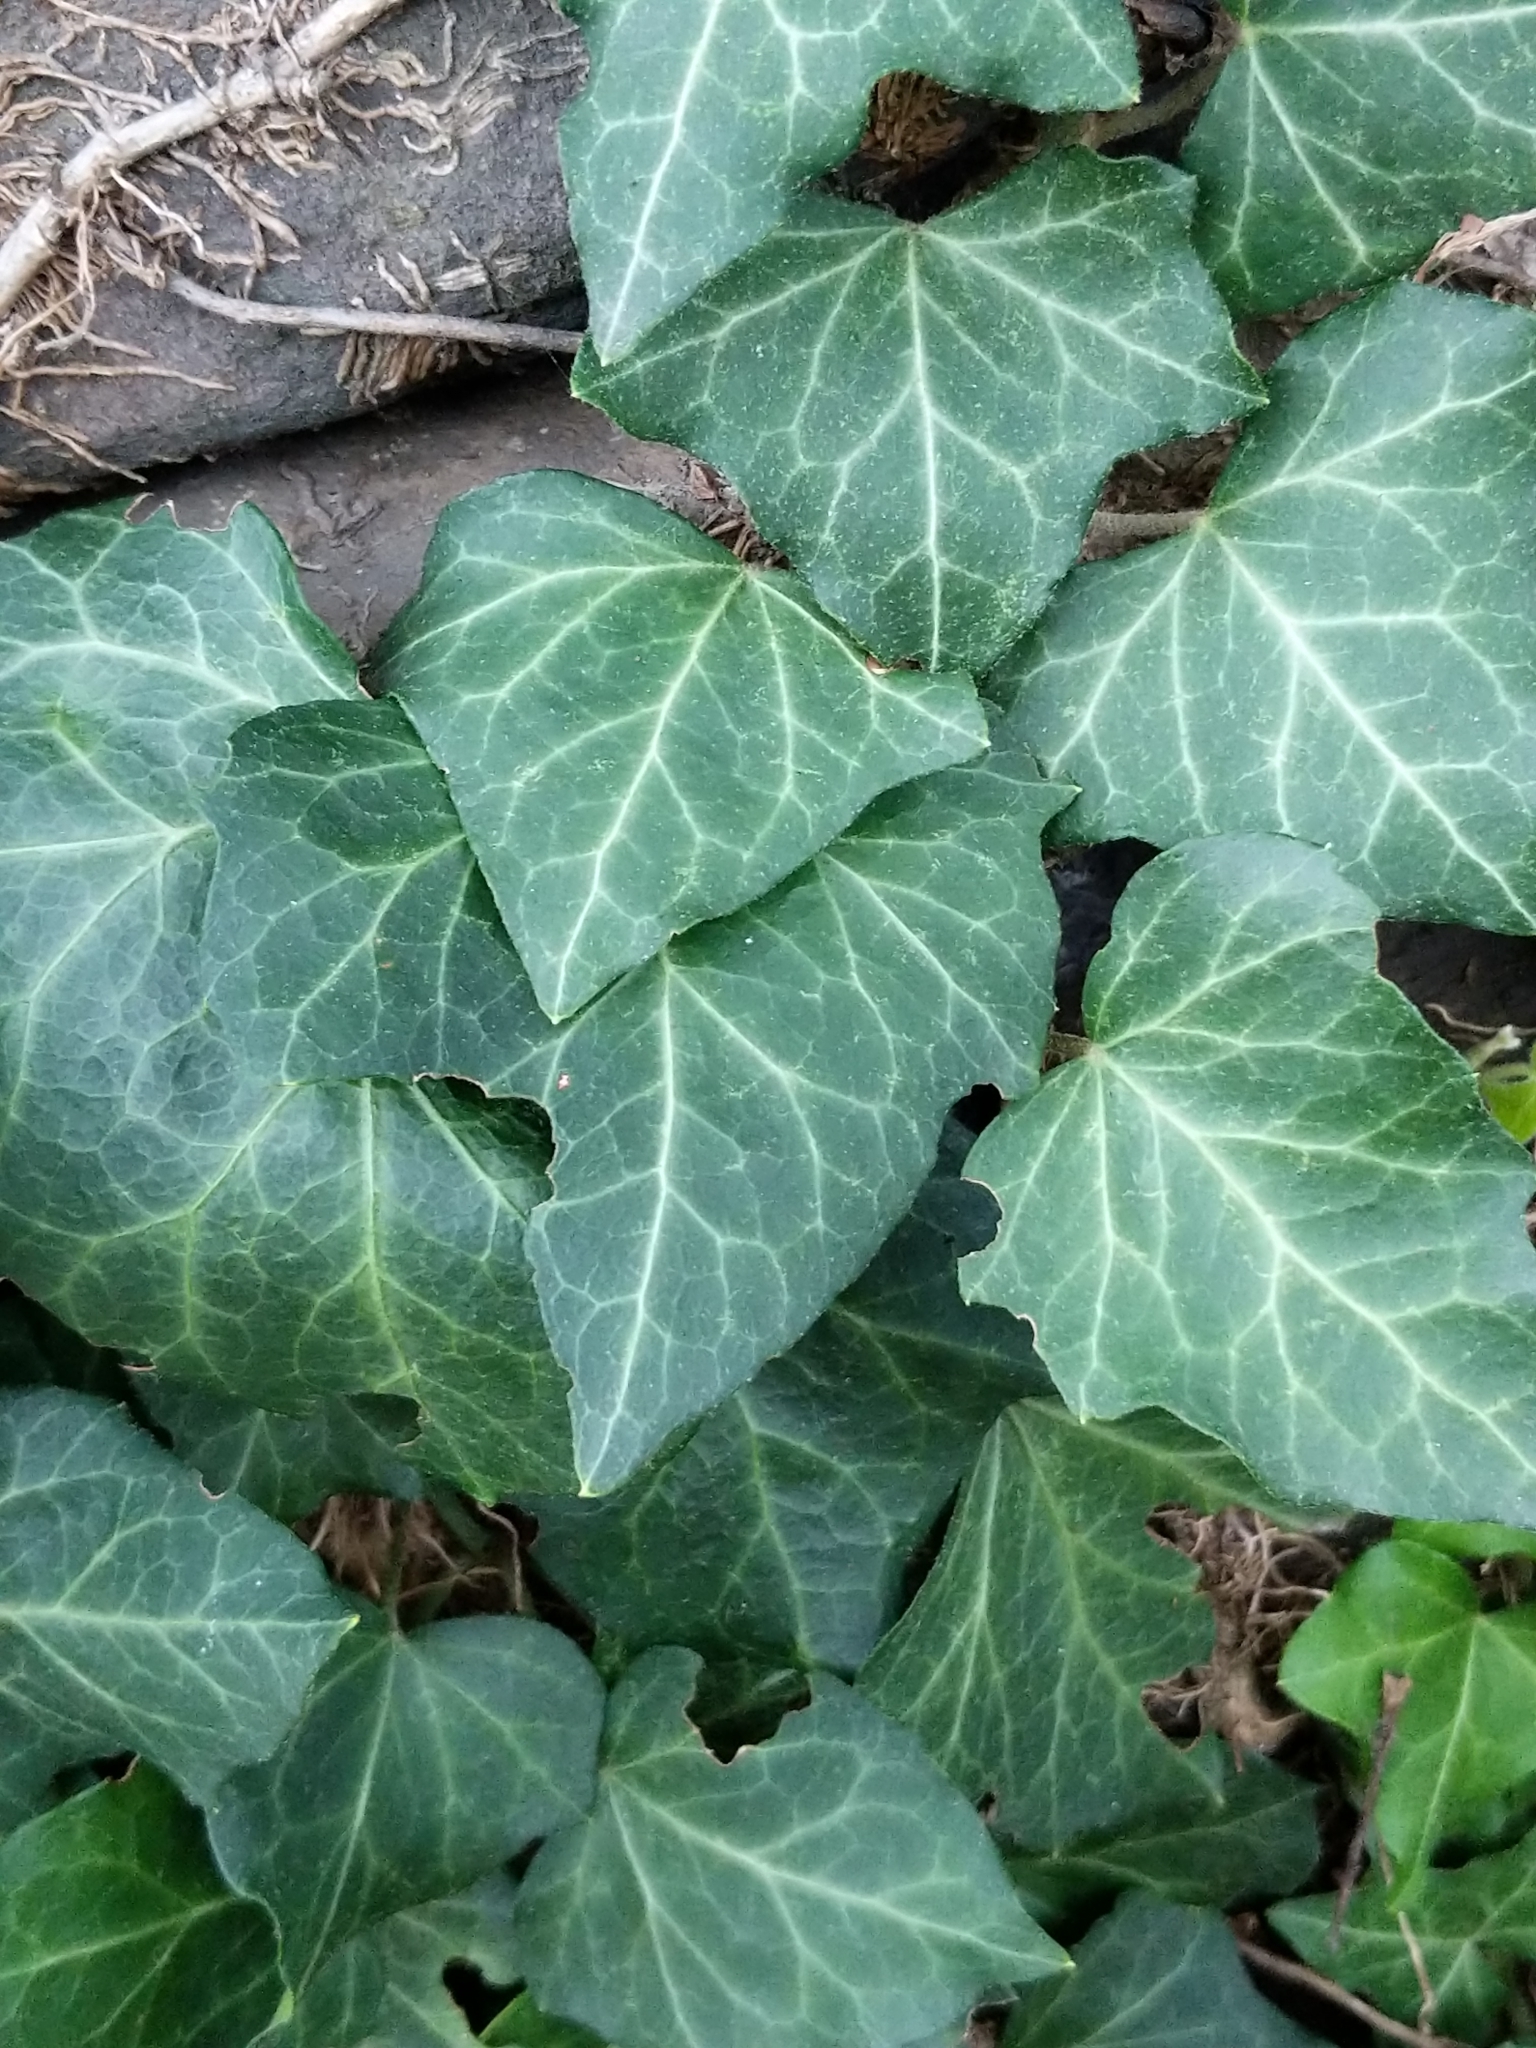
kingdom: Plantae
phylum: Tracheophyta
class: Magnoliopsida
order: Apiales
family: Araliaceae
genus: Hedera
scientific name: Hedera helix
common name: Ivy
